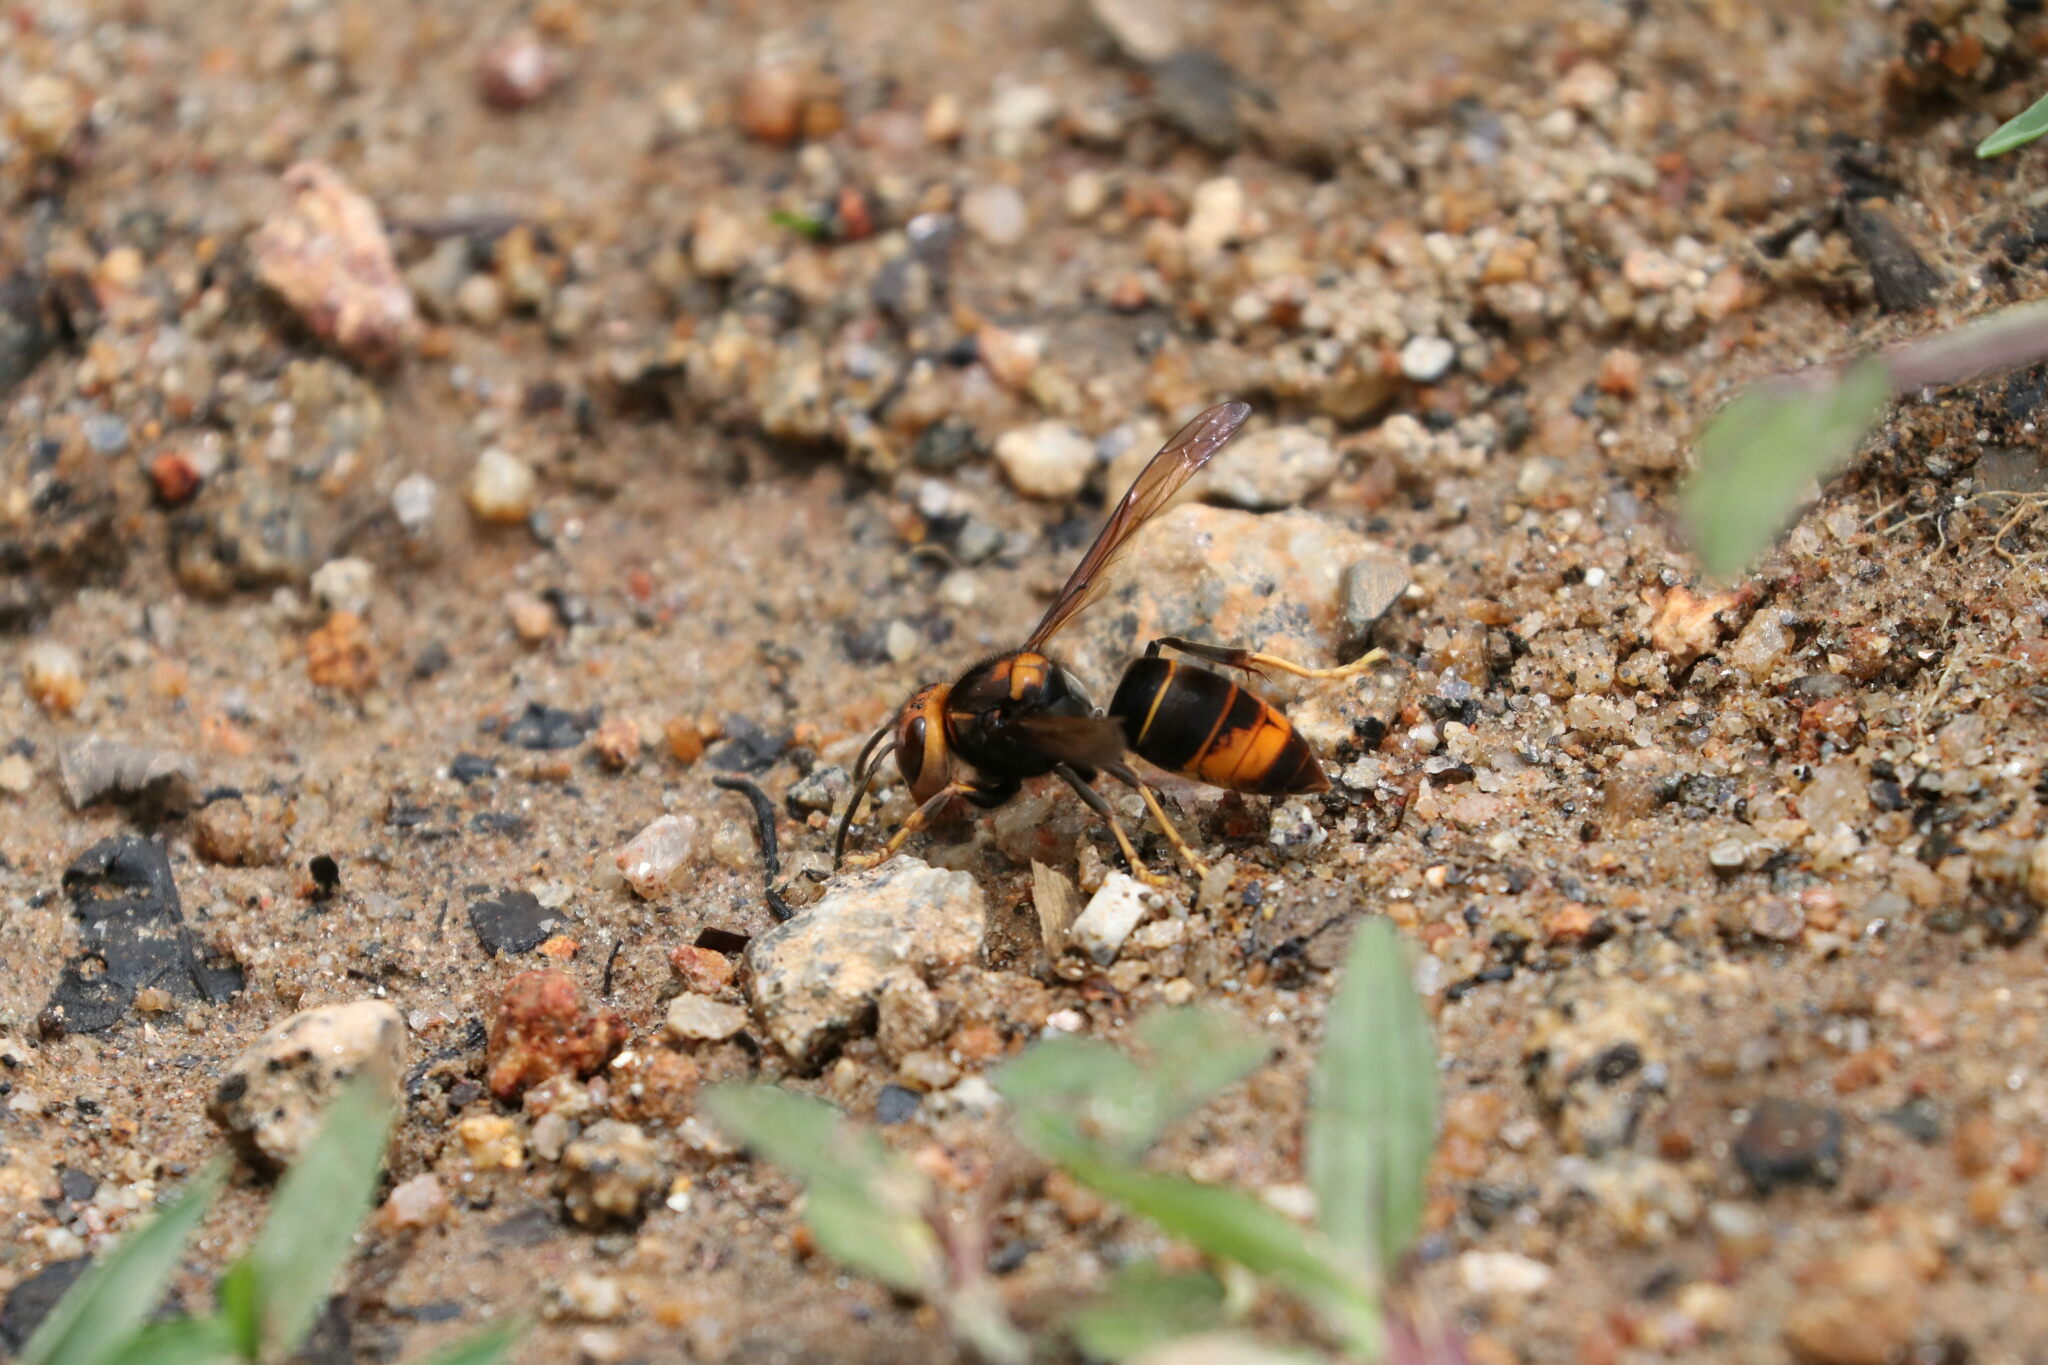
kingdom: Animalia
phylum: Arthropoda
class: Insecta
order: Hymenoptera
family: Vespidae
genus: Vespa
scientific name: Vespa velutina
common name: Asian hornet
